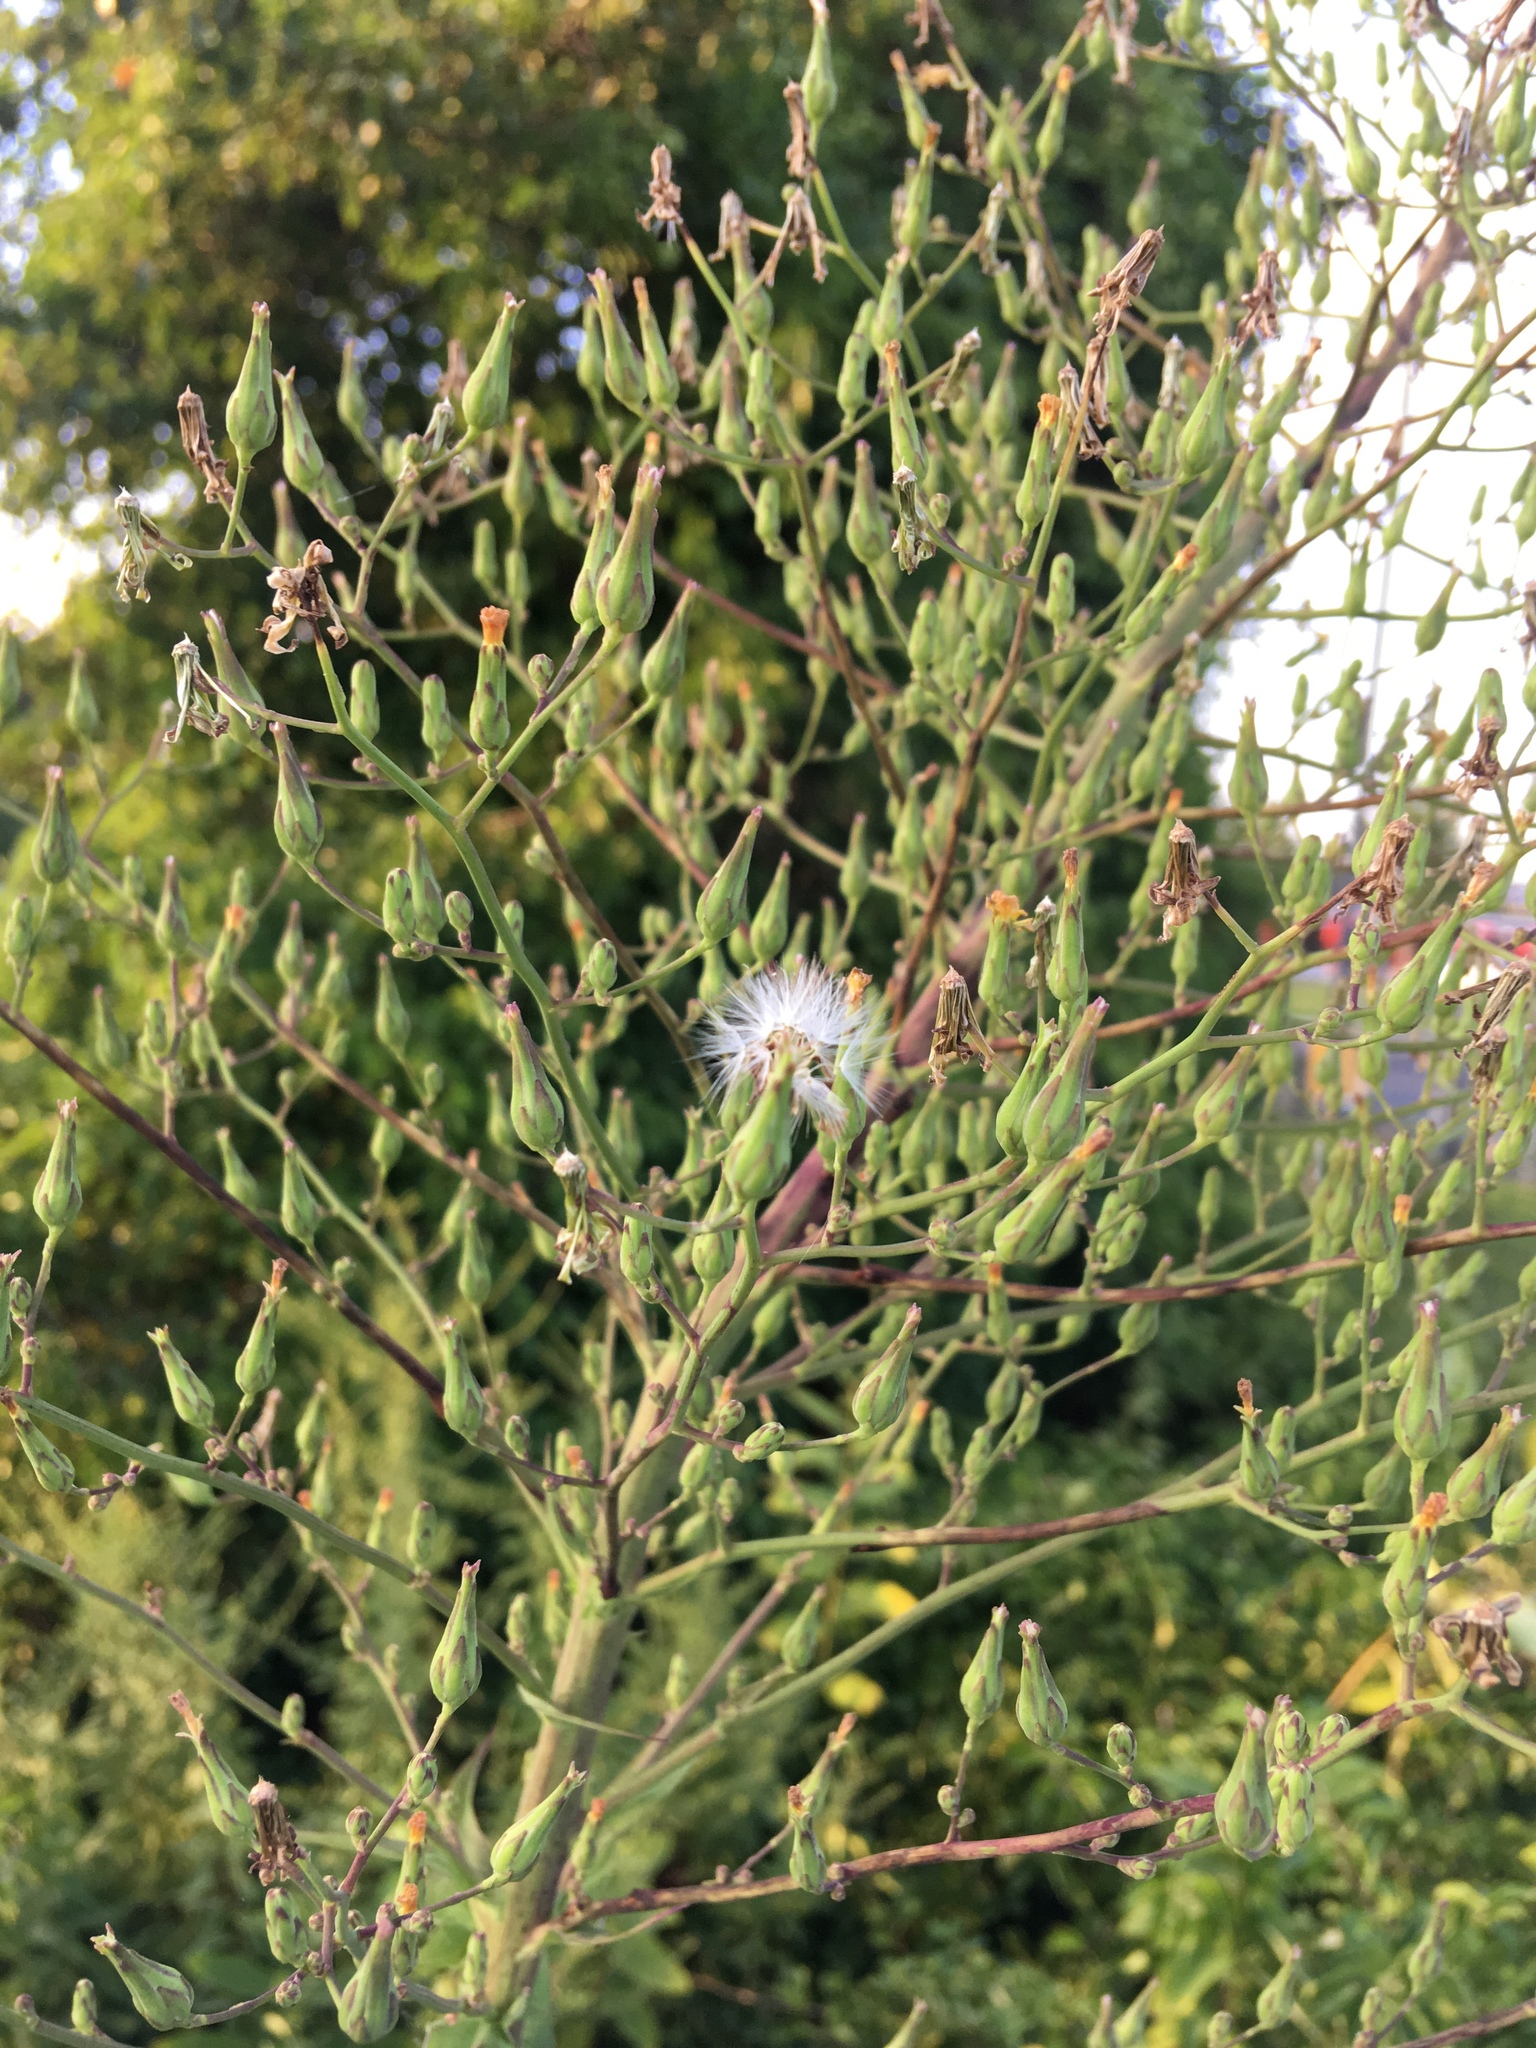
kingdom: Plantae
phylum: Tracheophyta
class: Magnoliopsida
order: Asterales
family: Asteraceae
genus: Lactuca
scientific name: Lactuca canadensis
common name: Canada lettuce
